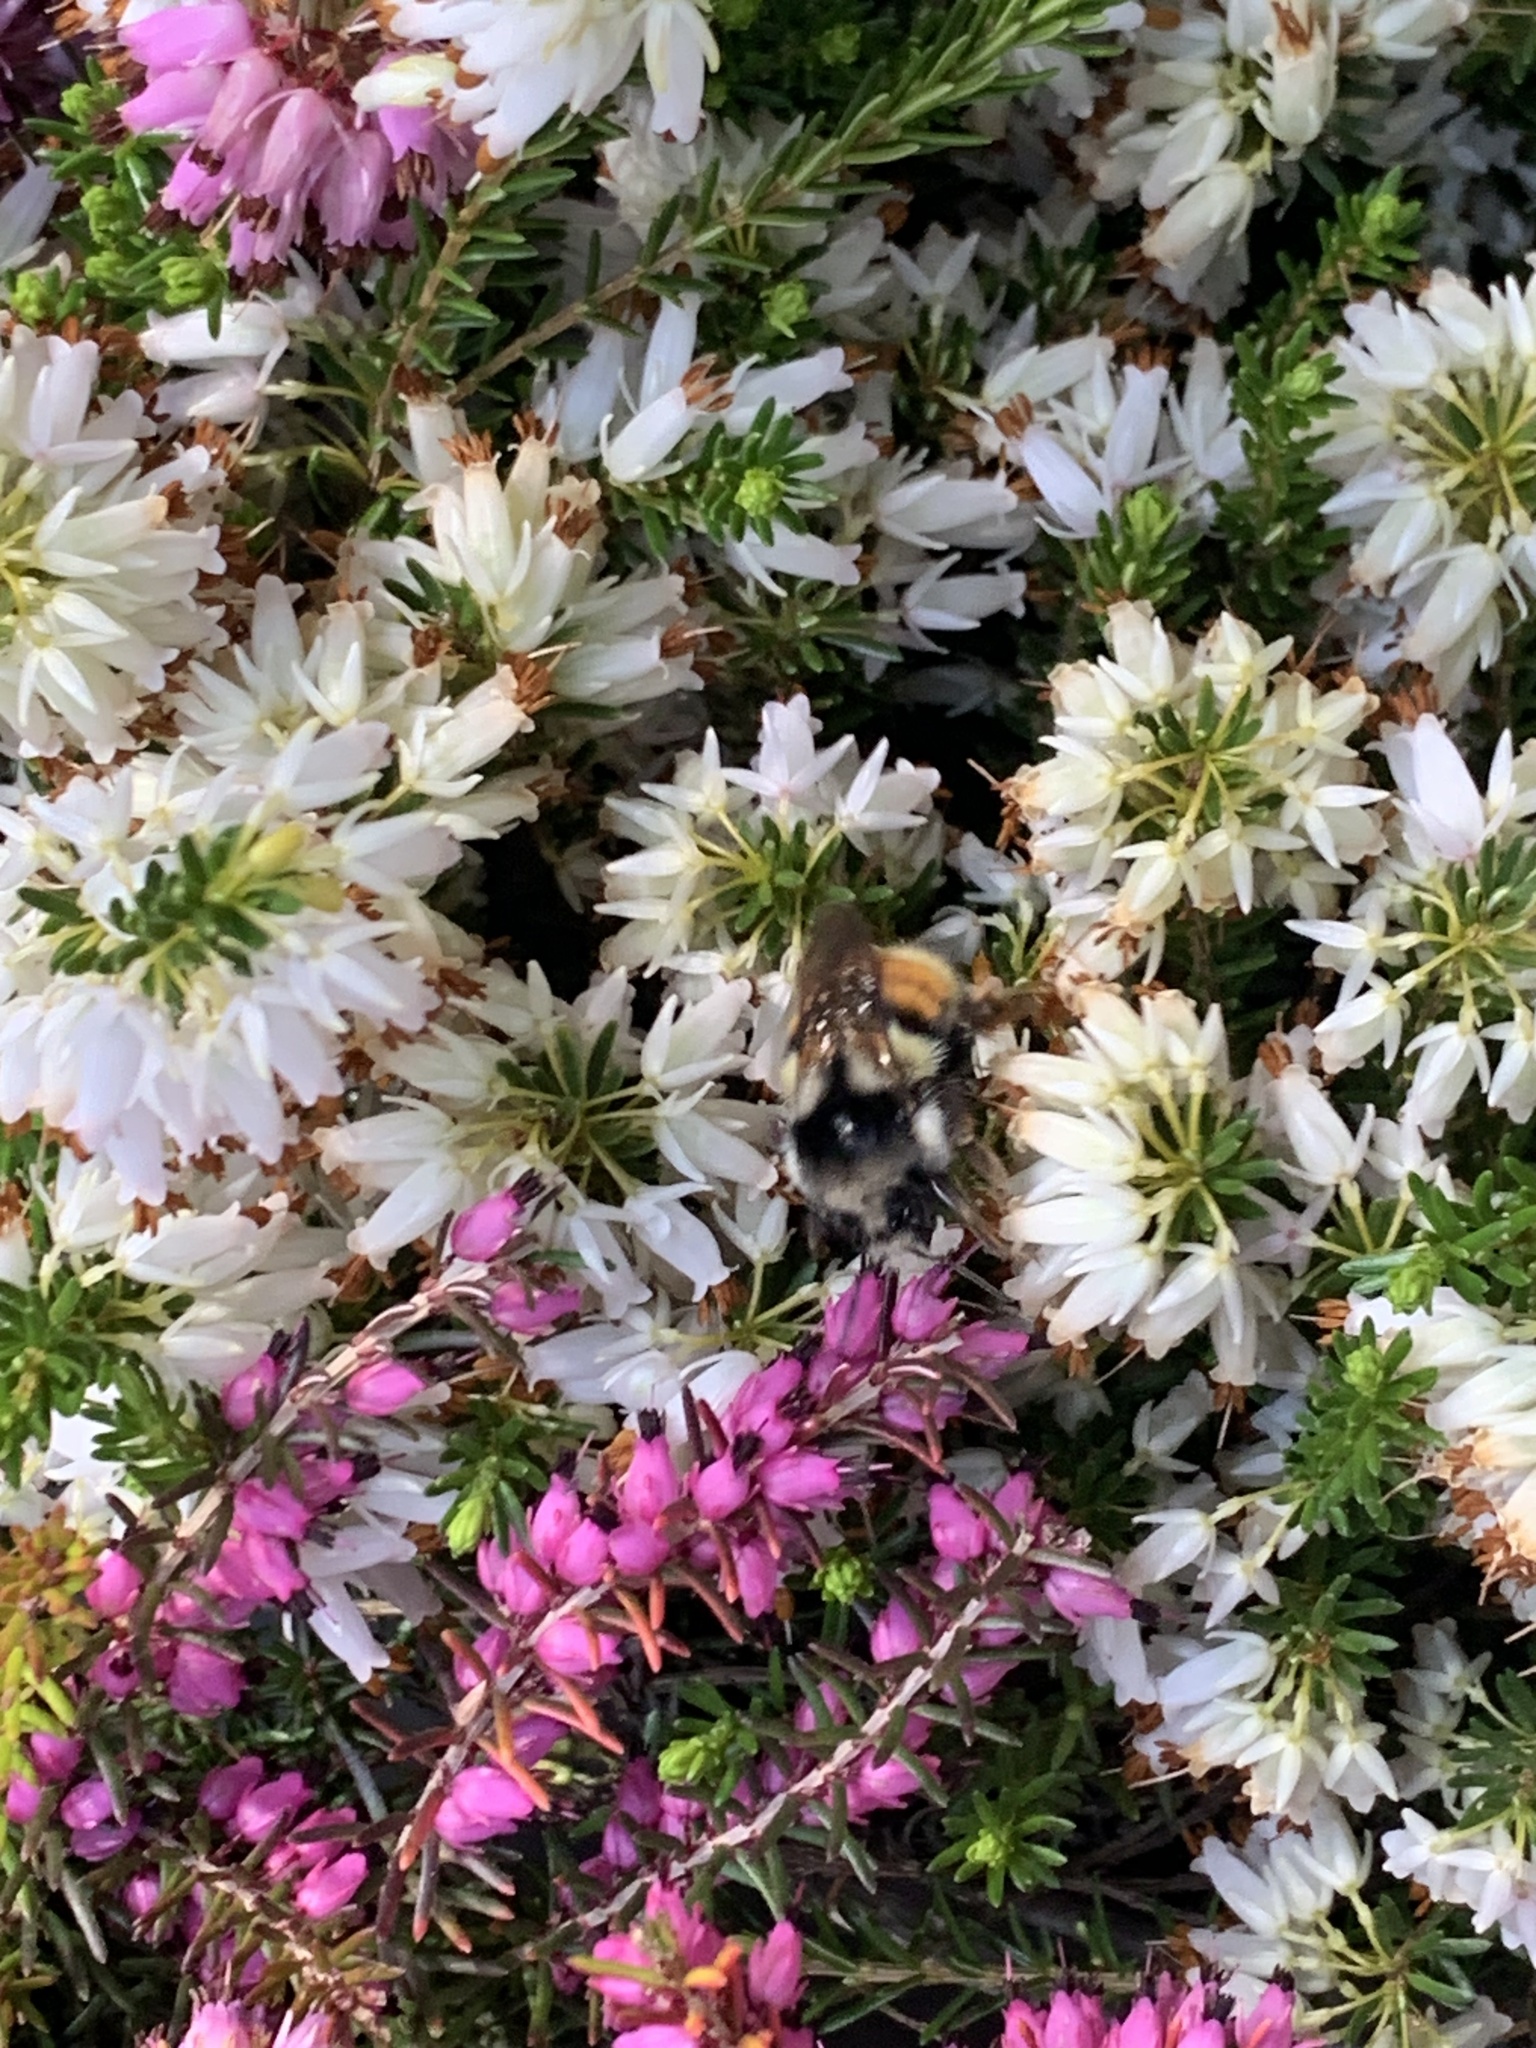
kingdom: Animalia
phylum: Arthropoda
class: Insecta
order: Hymenoptera
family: Apidae
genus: Bombus
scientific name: Bombus vancouverensis
